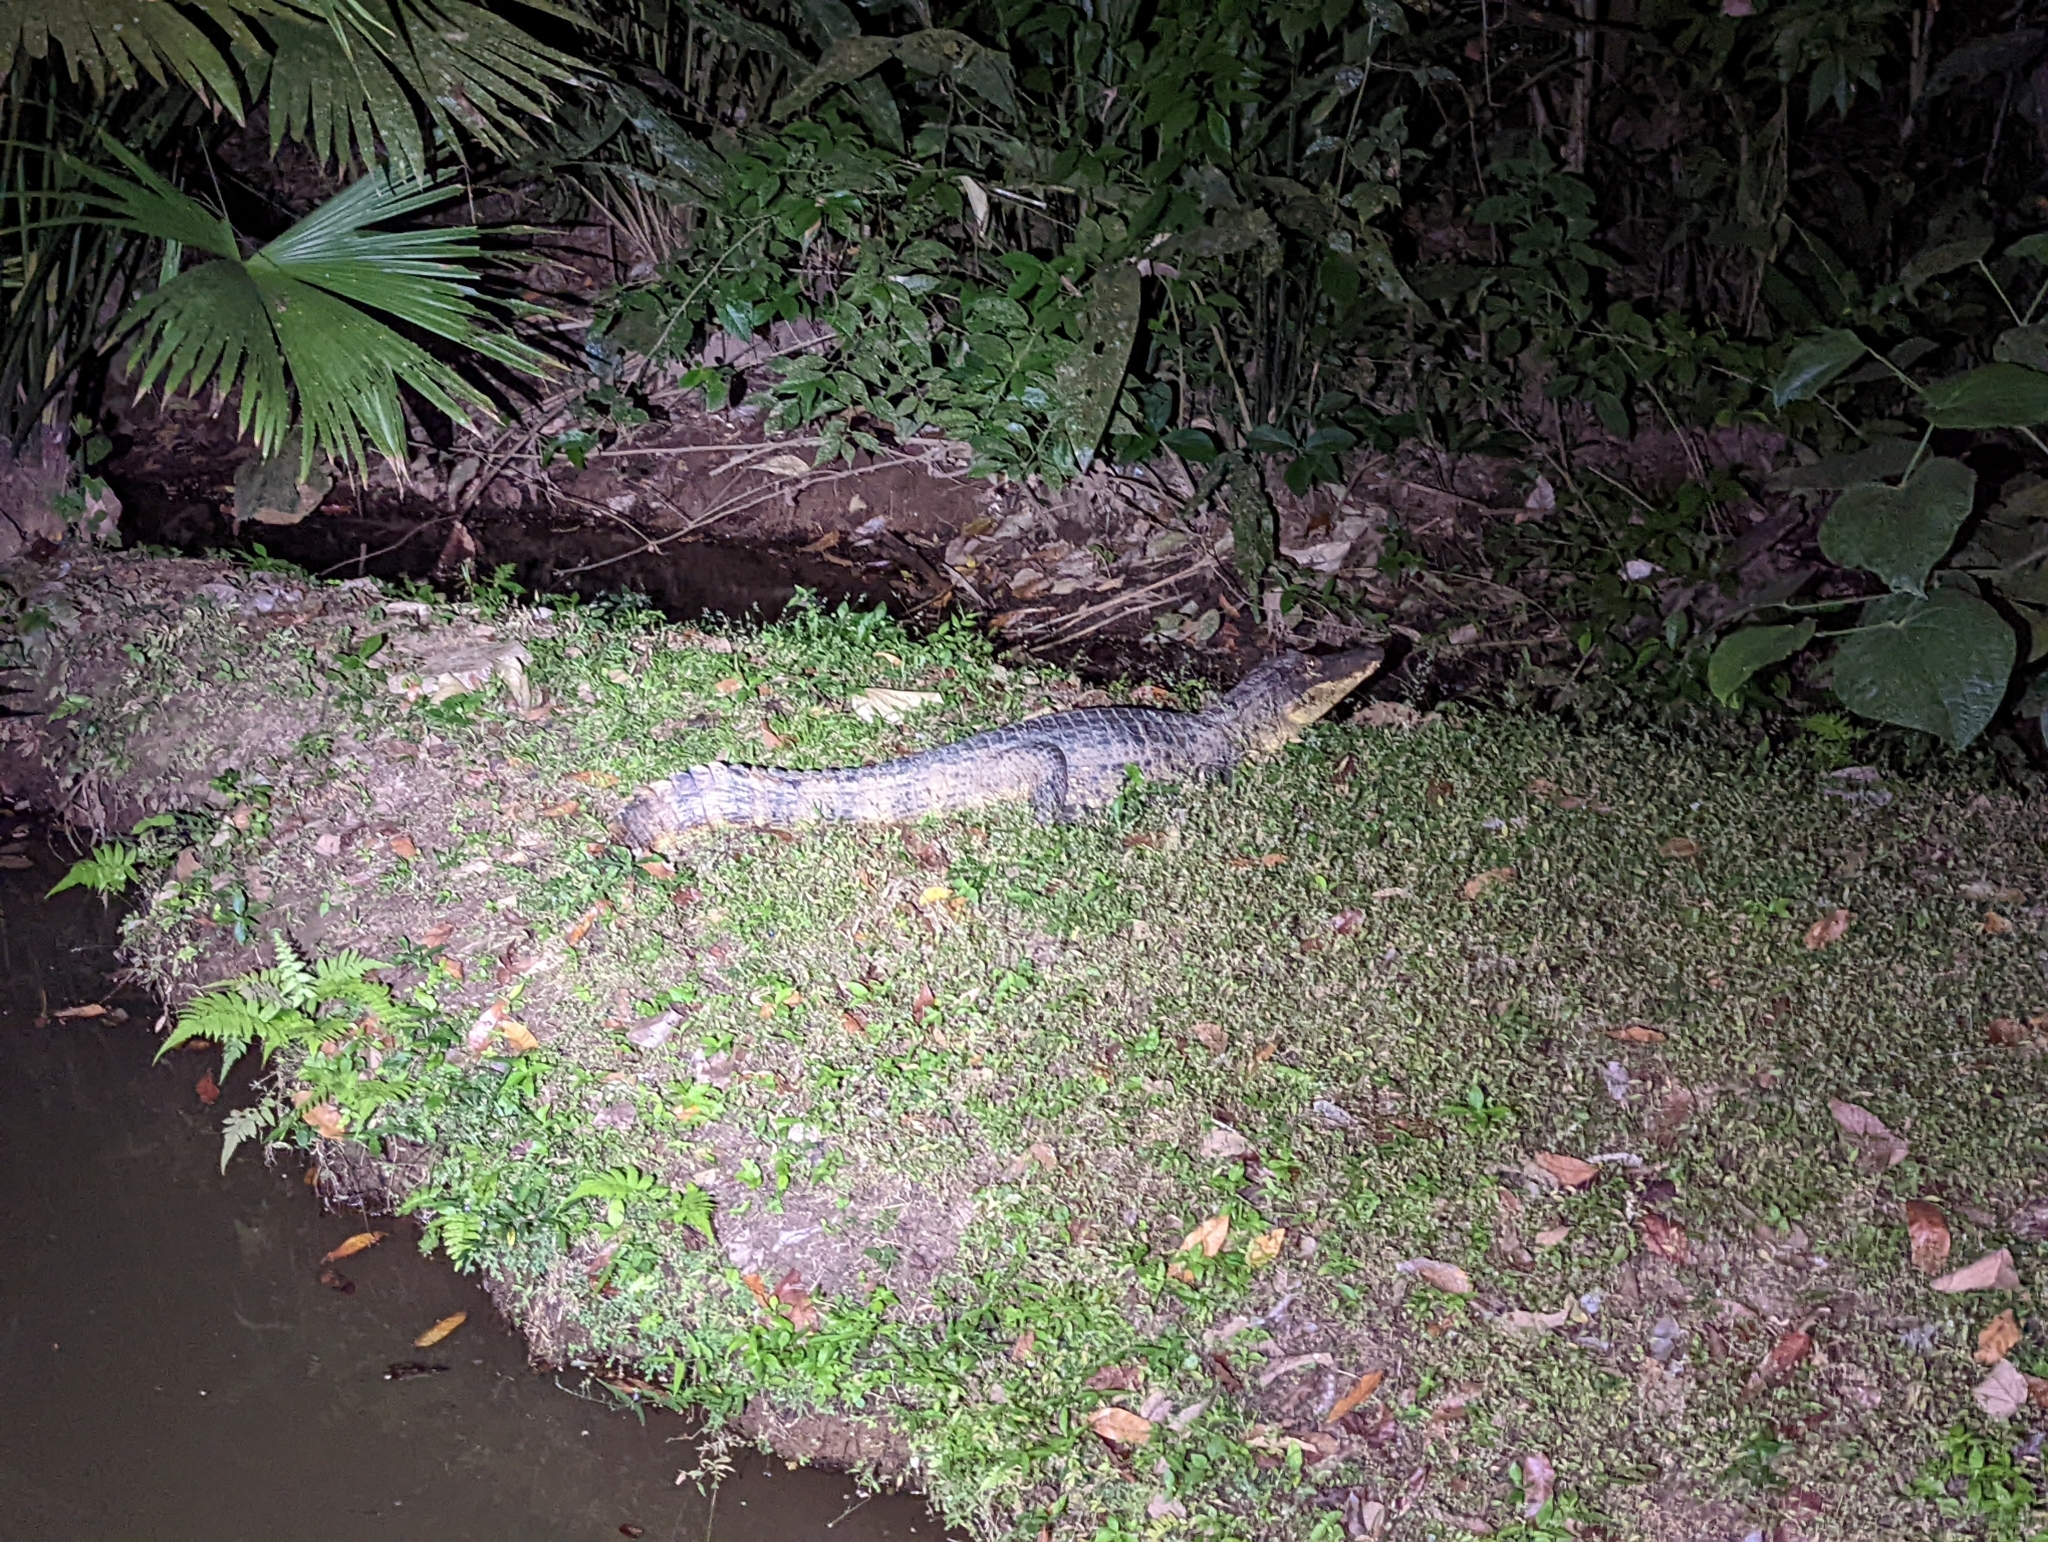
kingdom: Animalia
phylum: Chordata
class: Crocodylia
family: Alligatoridae
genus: Caiman
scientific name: Caiman crocodilus
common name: Common caiman
